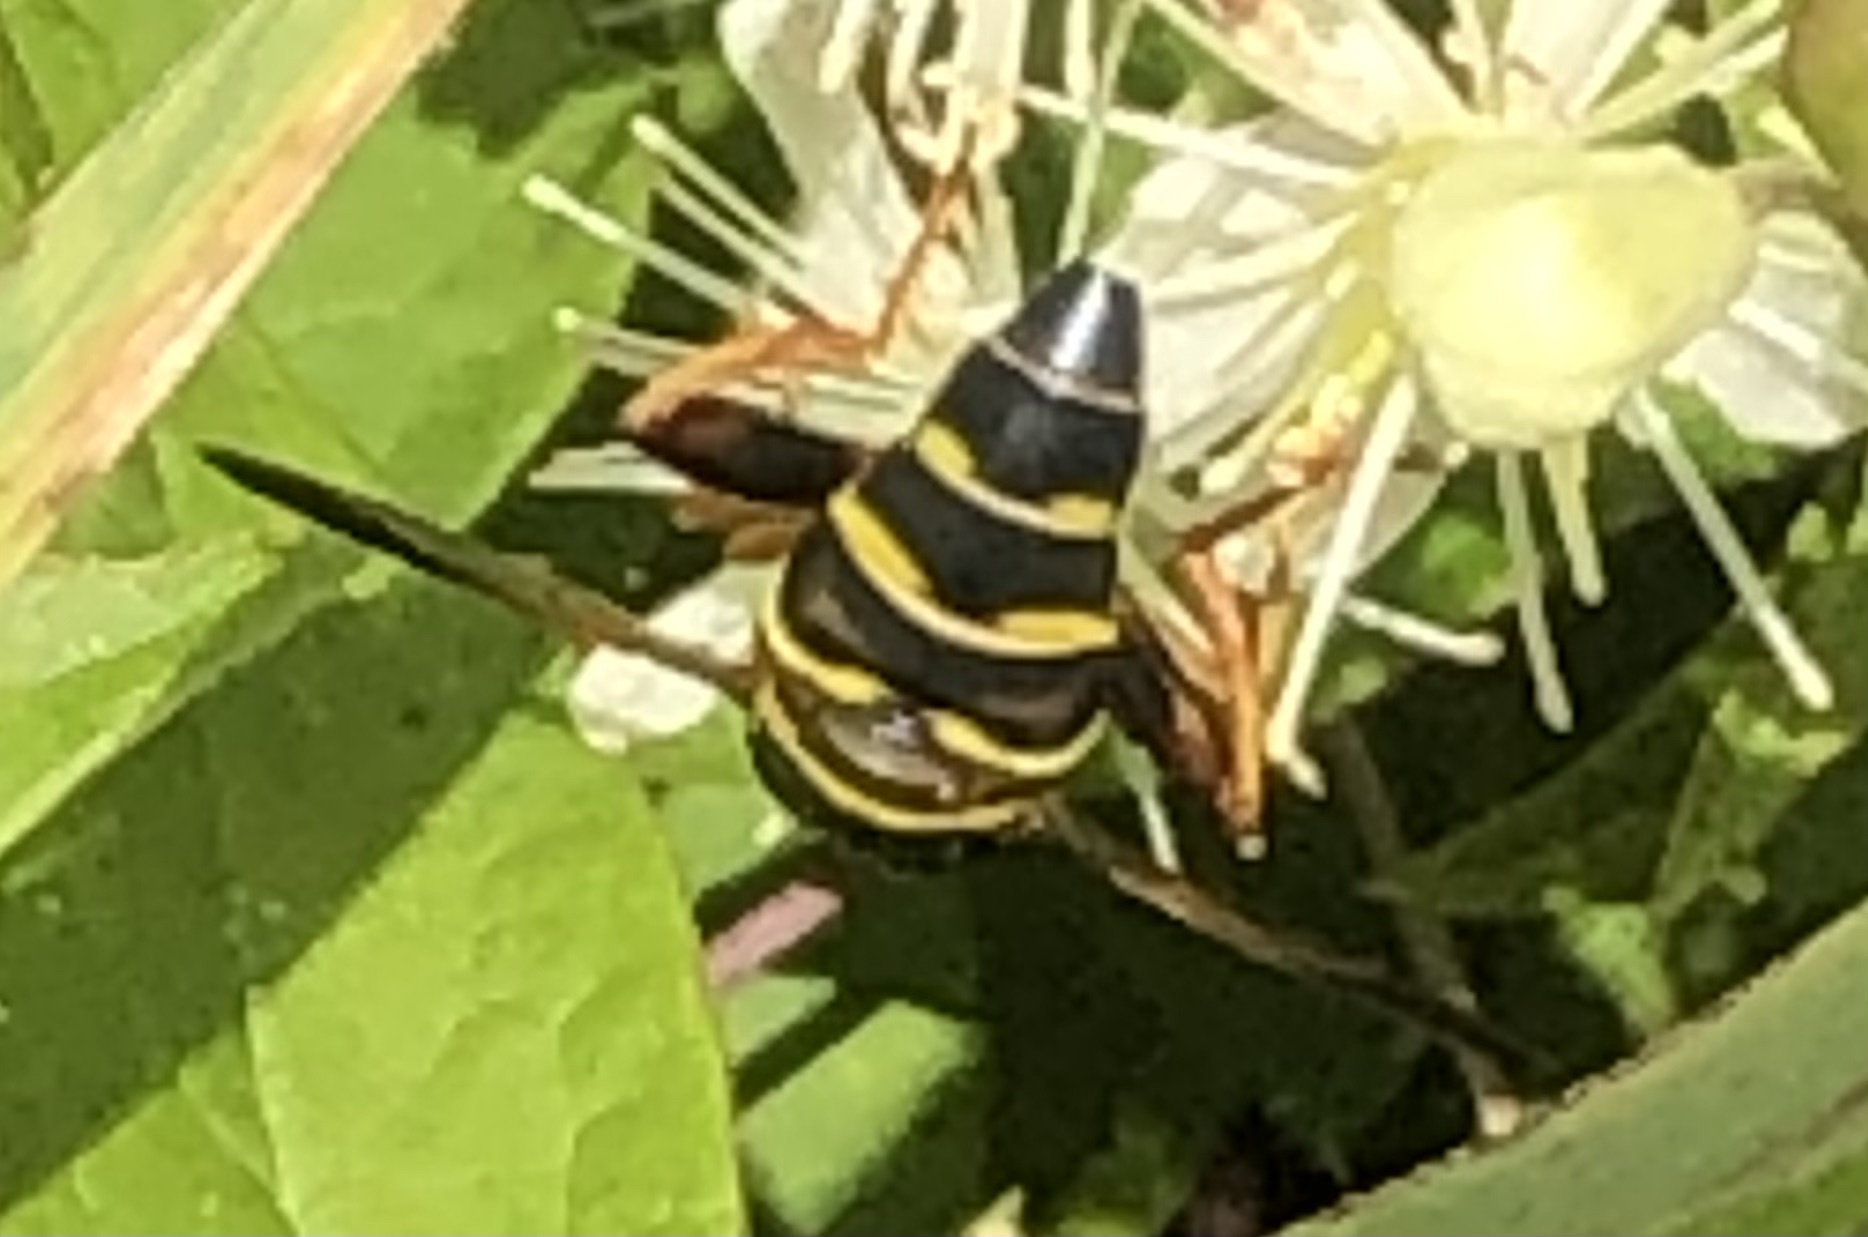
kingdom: Animalia
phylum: Arthropoda
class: Insecta
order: Diptera
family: Syrphidae
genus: Meromacrus
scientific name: Meromacrus acutus
